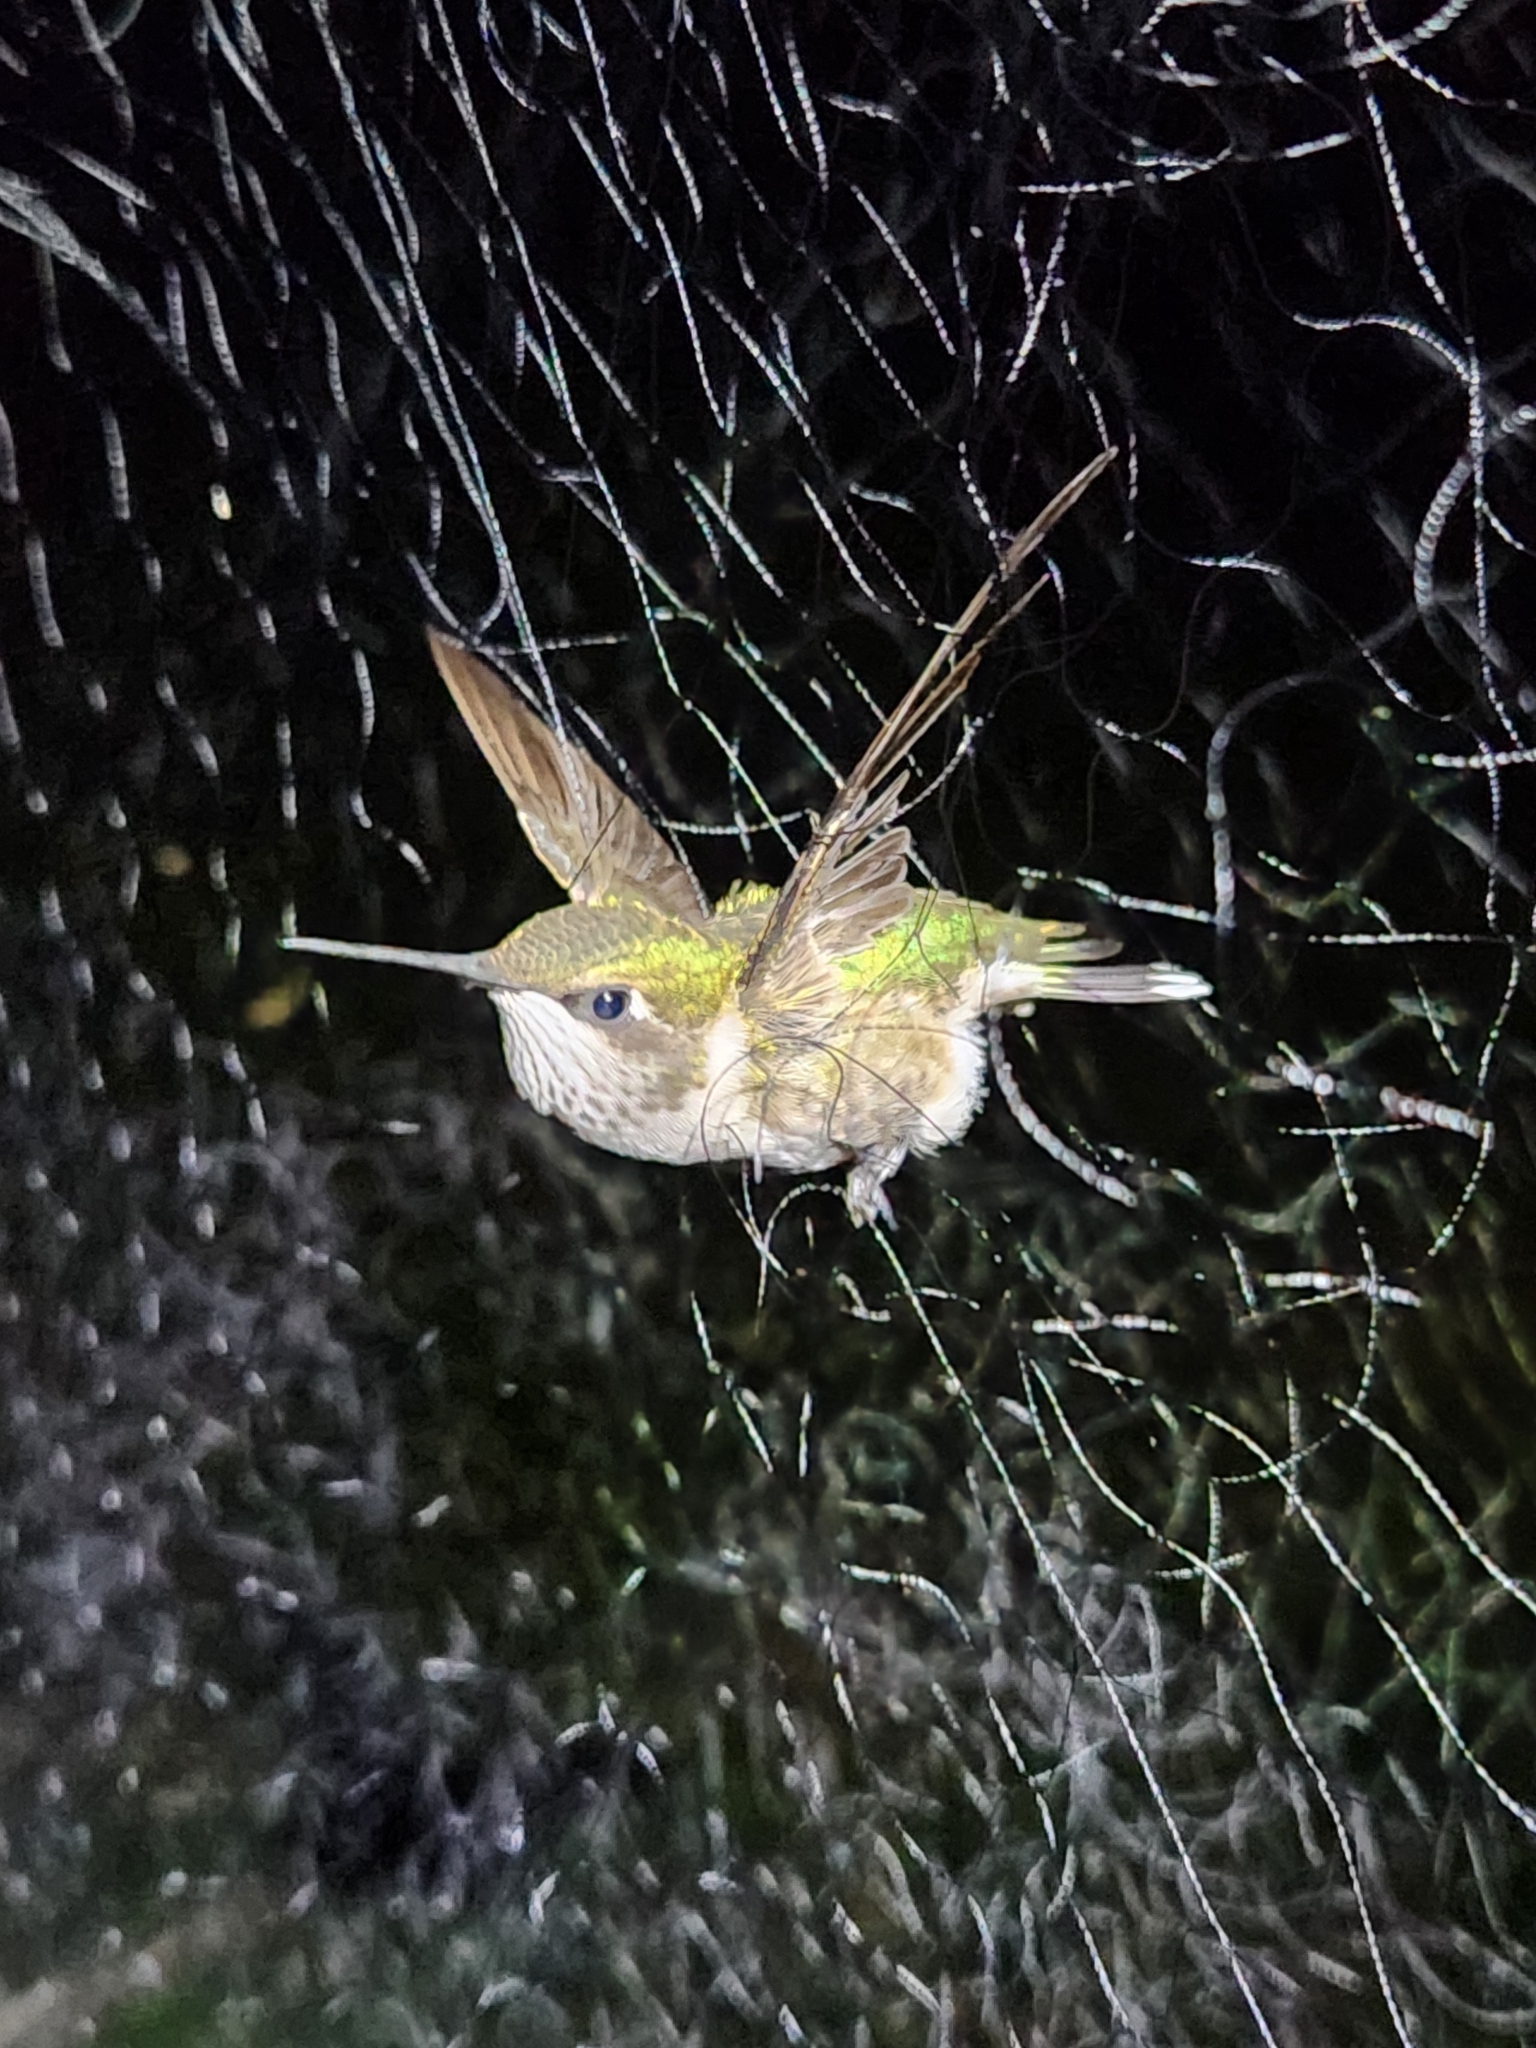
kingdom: Animalia
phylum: Chordata
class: Aves
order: Apodiformes
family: Trochilidae
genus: Archilochus
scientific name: Archilochus colubris
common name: Ruby-throated hummingbird
